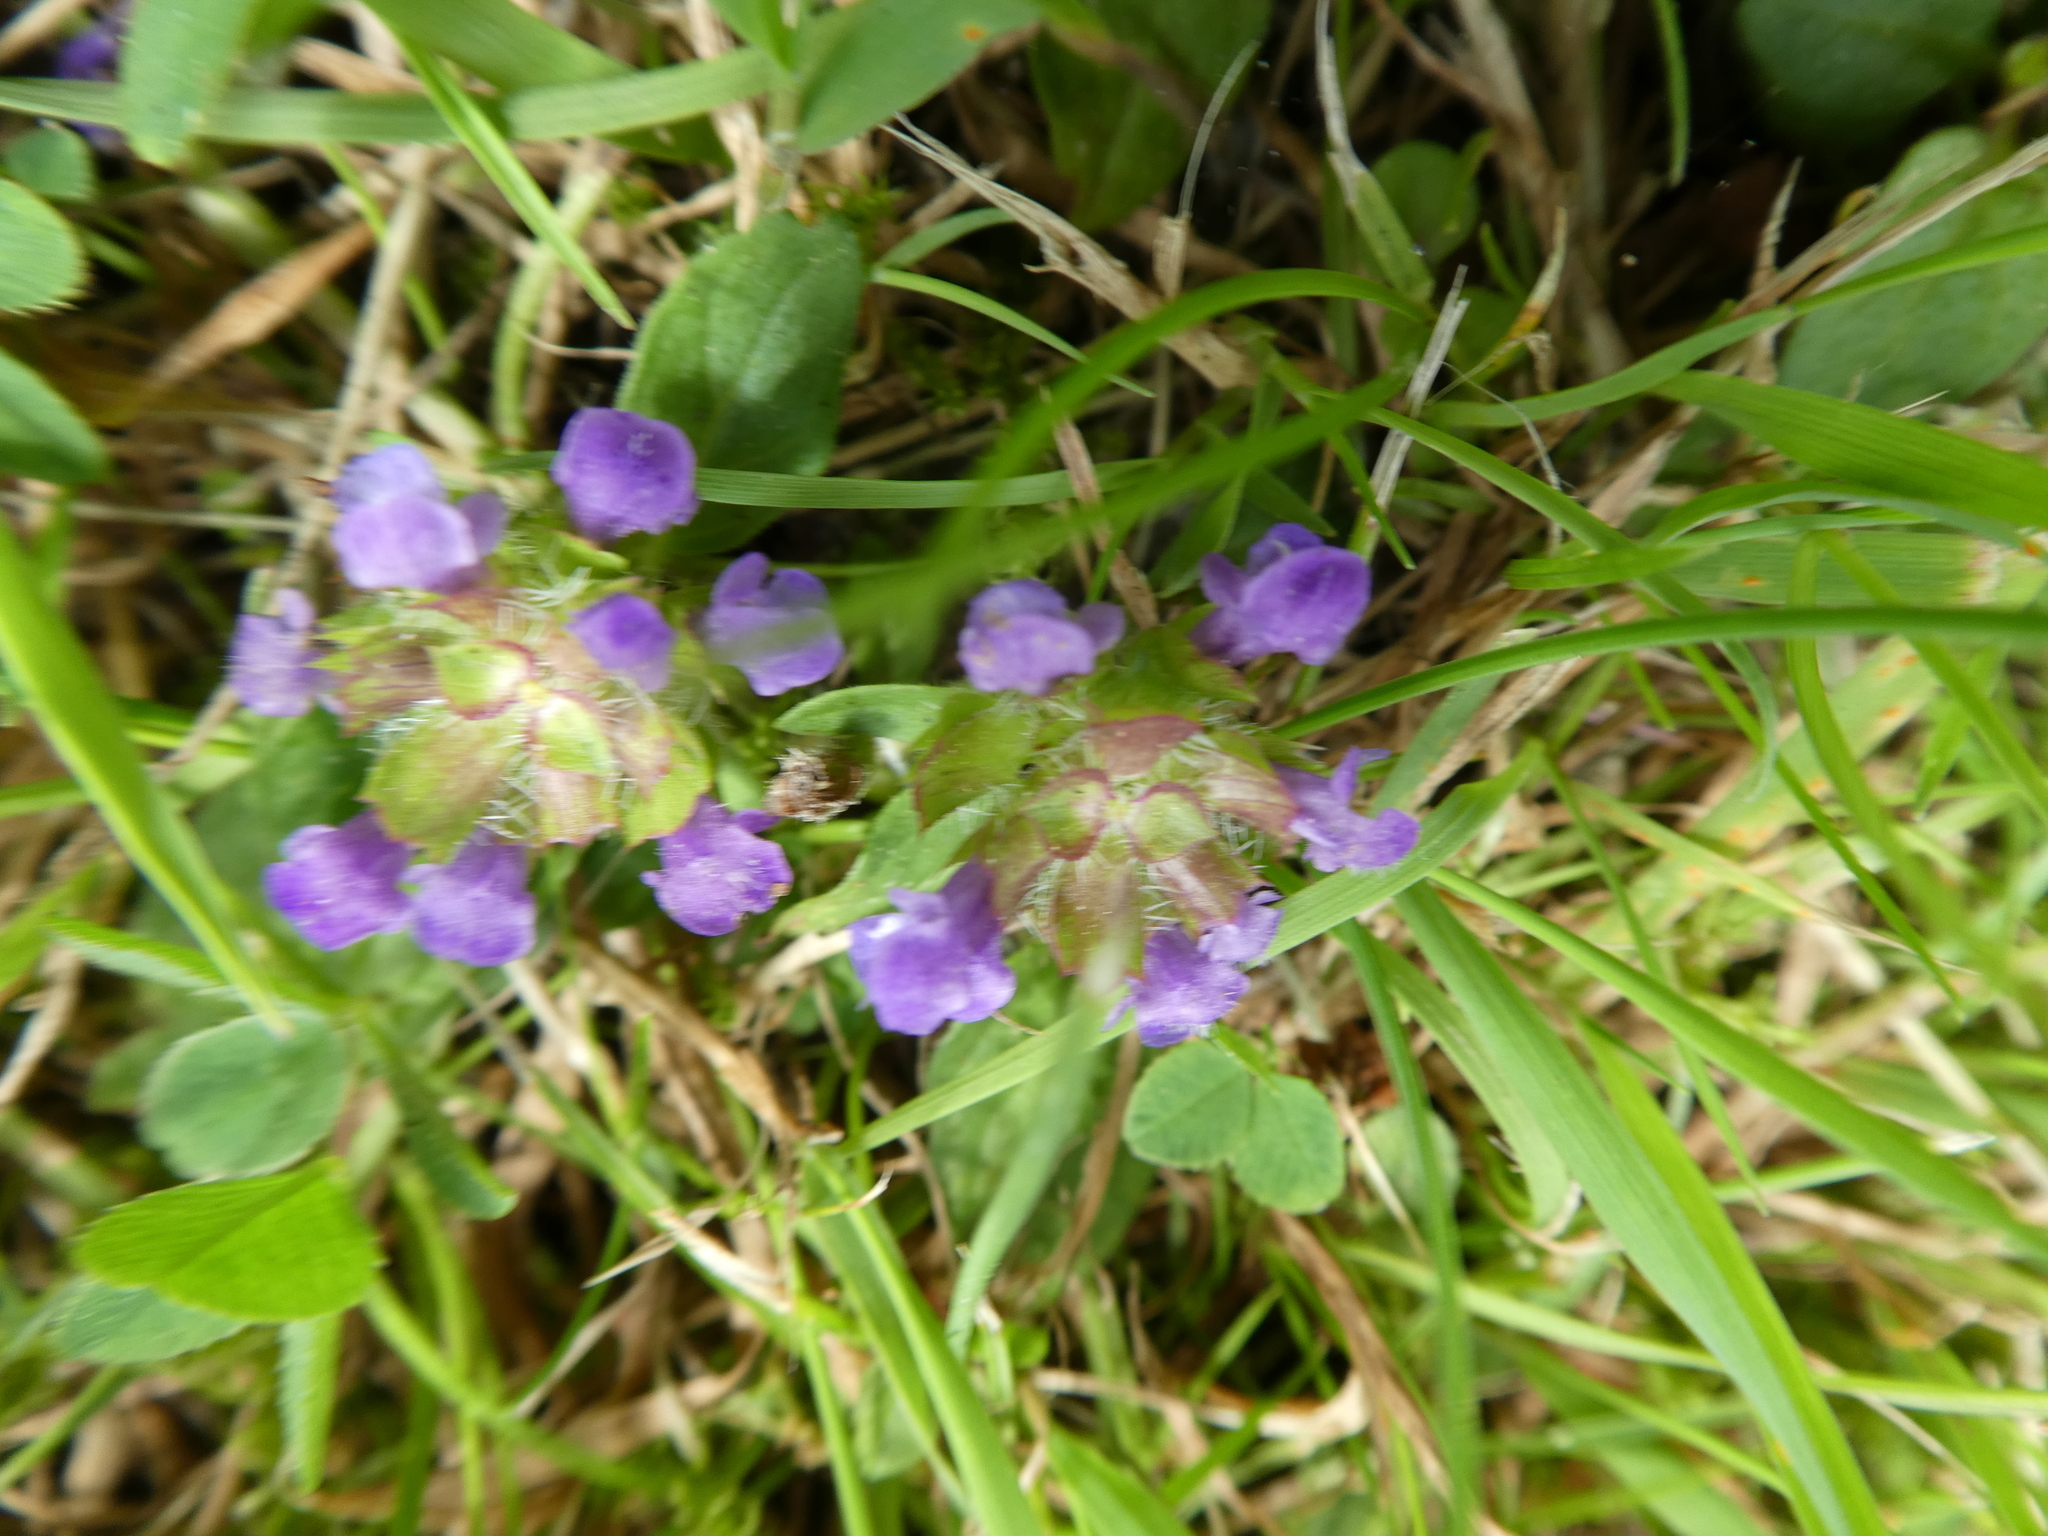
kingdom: Plantae
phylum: Tracheophyta
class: Magnoliopsida
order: Lamiales
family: Lamiaceae
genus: Prunella
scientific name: Prunella vulgaris
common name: Heal-all
